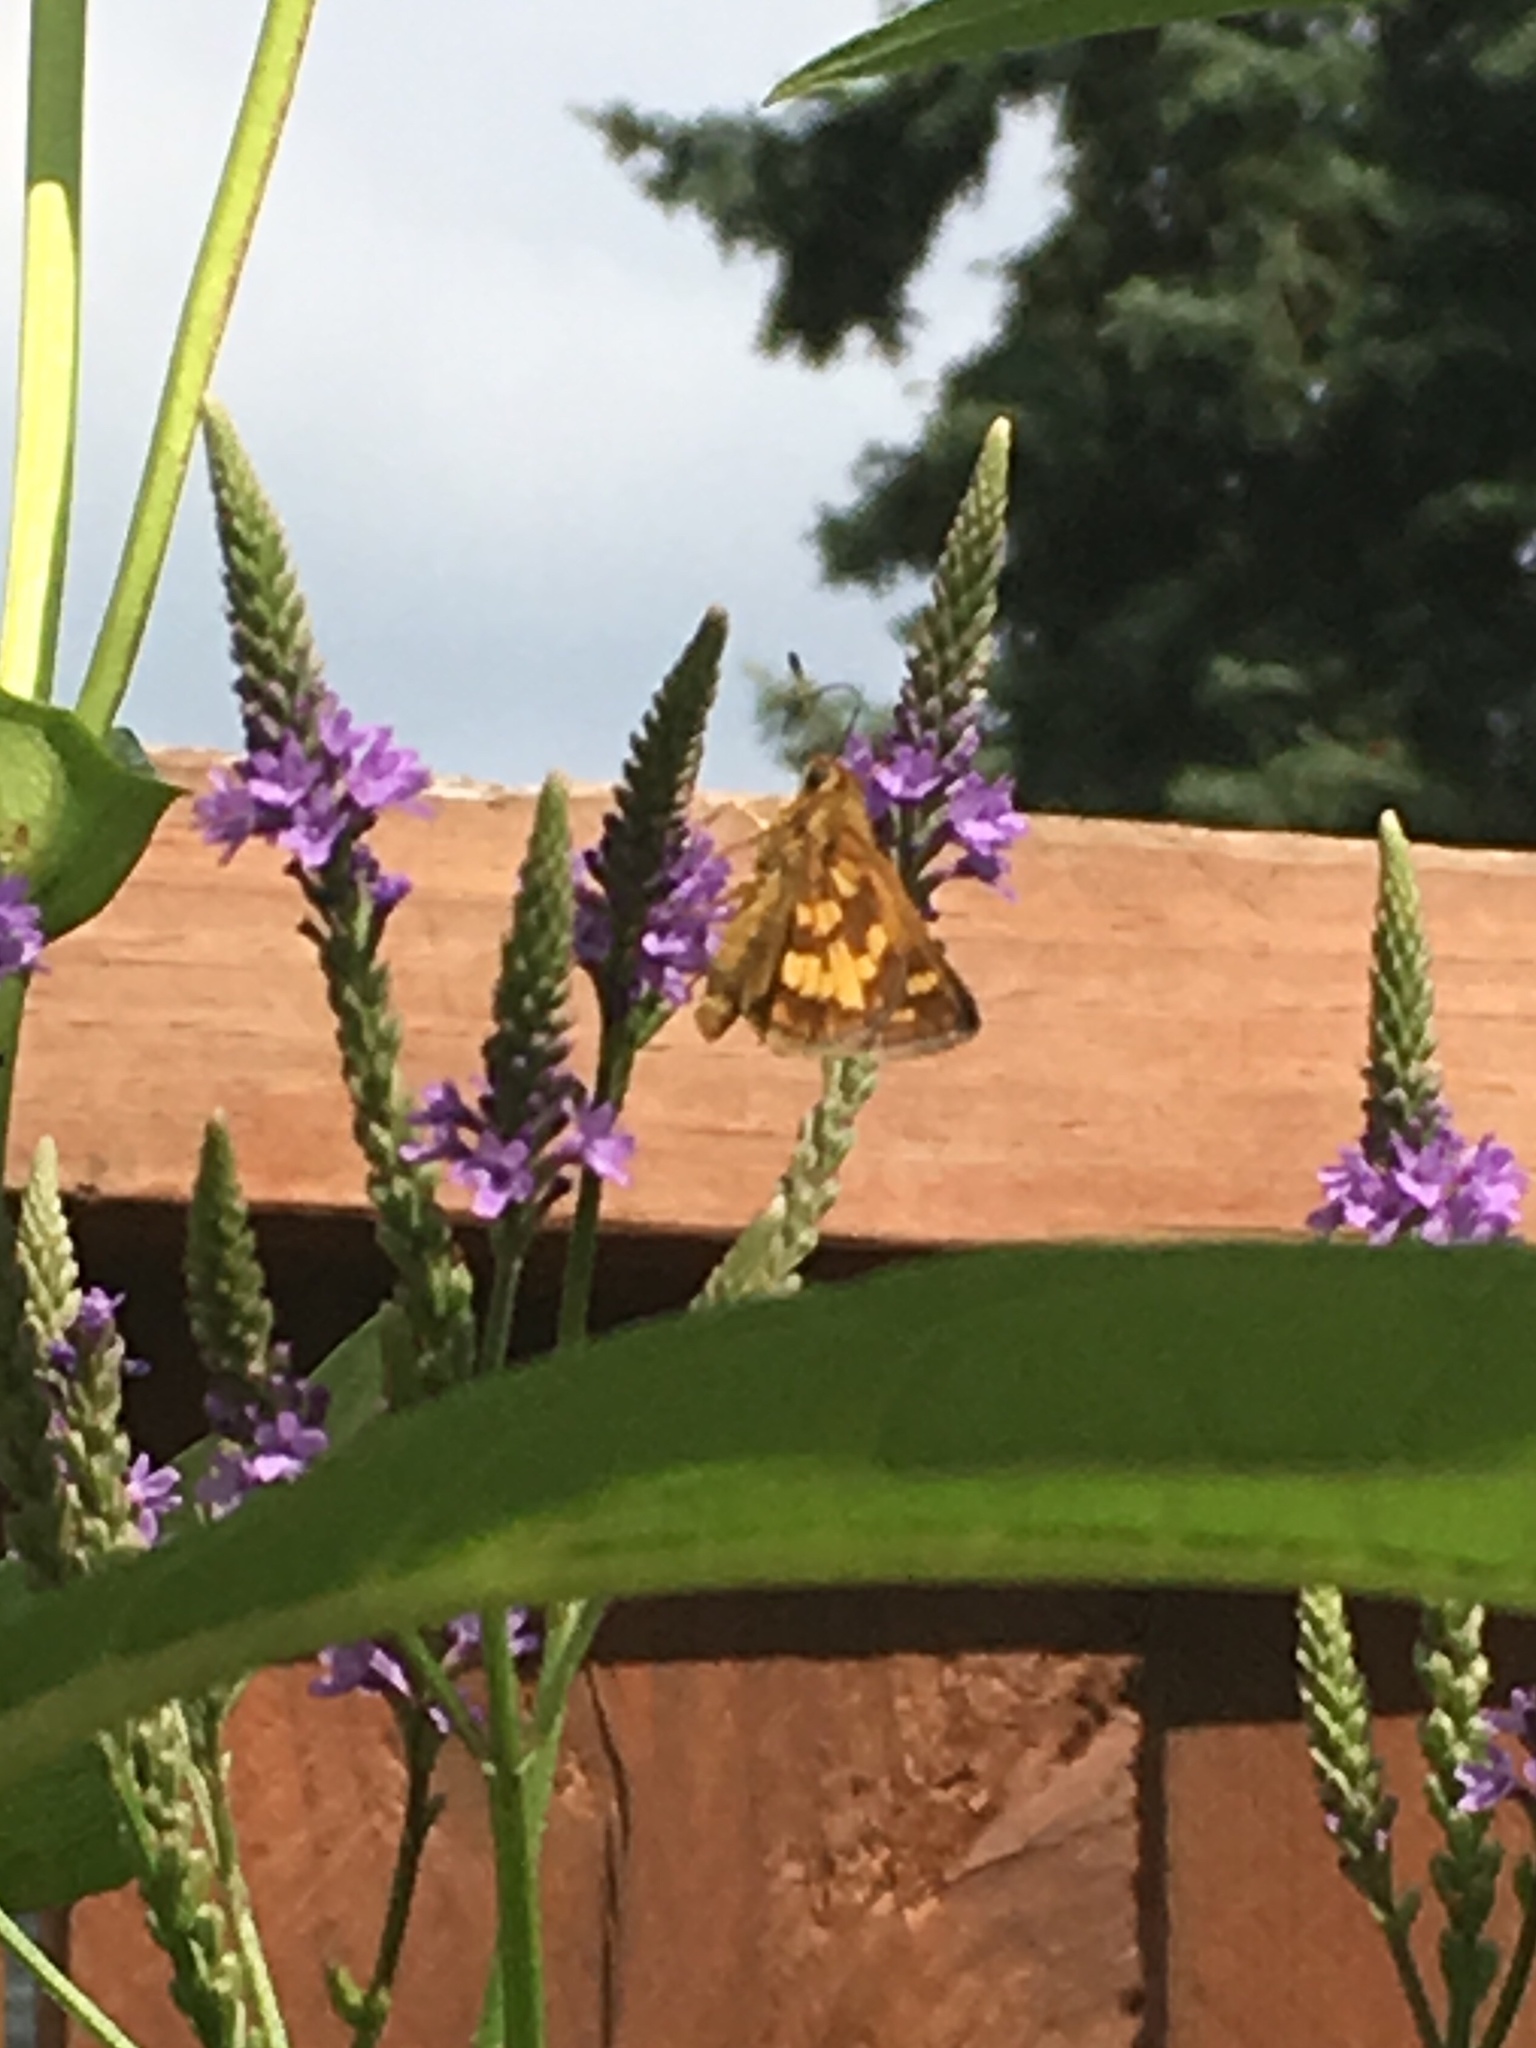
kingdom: Animalia
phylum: Arthropoda
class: Insecta
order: Lepidoptera
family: Hesperiidae
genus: Polites
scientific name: Polites coras
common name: Peck's skipper
